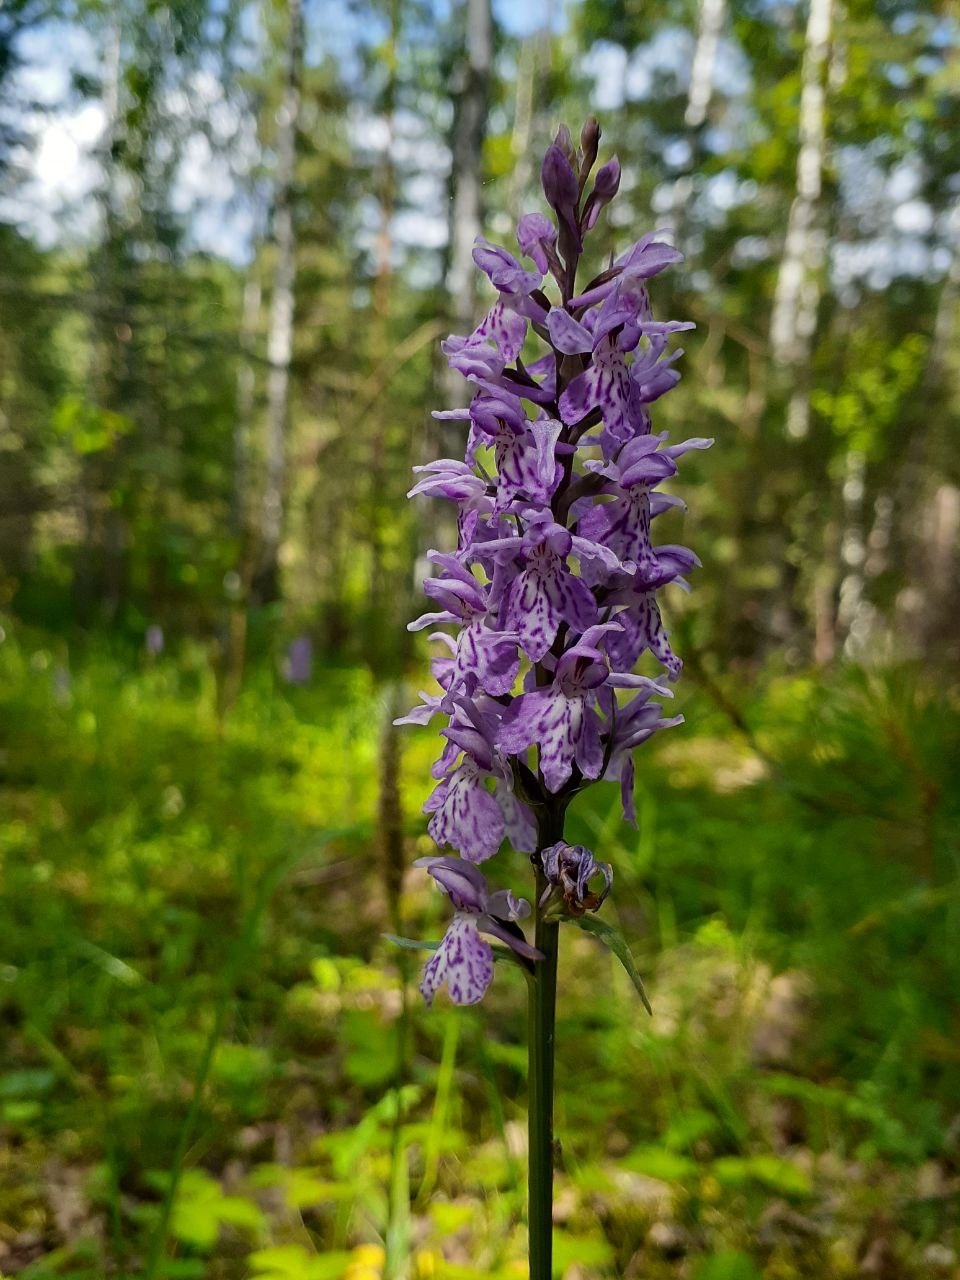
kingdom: Plantae
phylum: Tracheophyta
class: Liliopsida
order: Asparagales
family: Orchidaceae
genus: Dactylorhiza
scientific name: Dactylorhiza maculata
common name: Heath spotted-orchid
